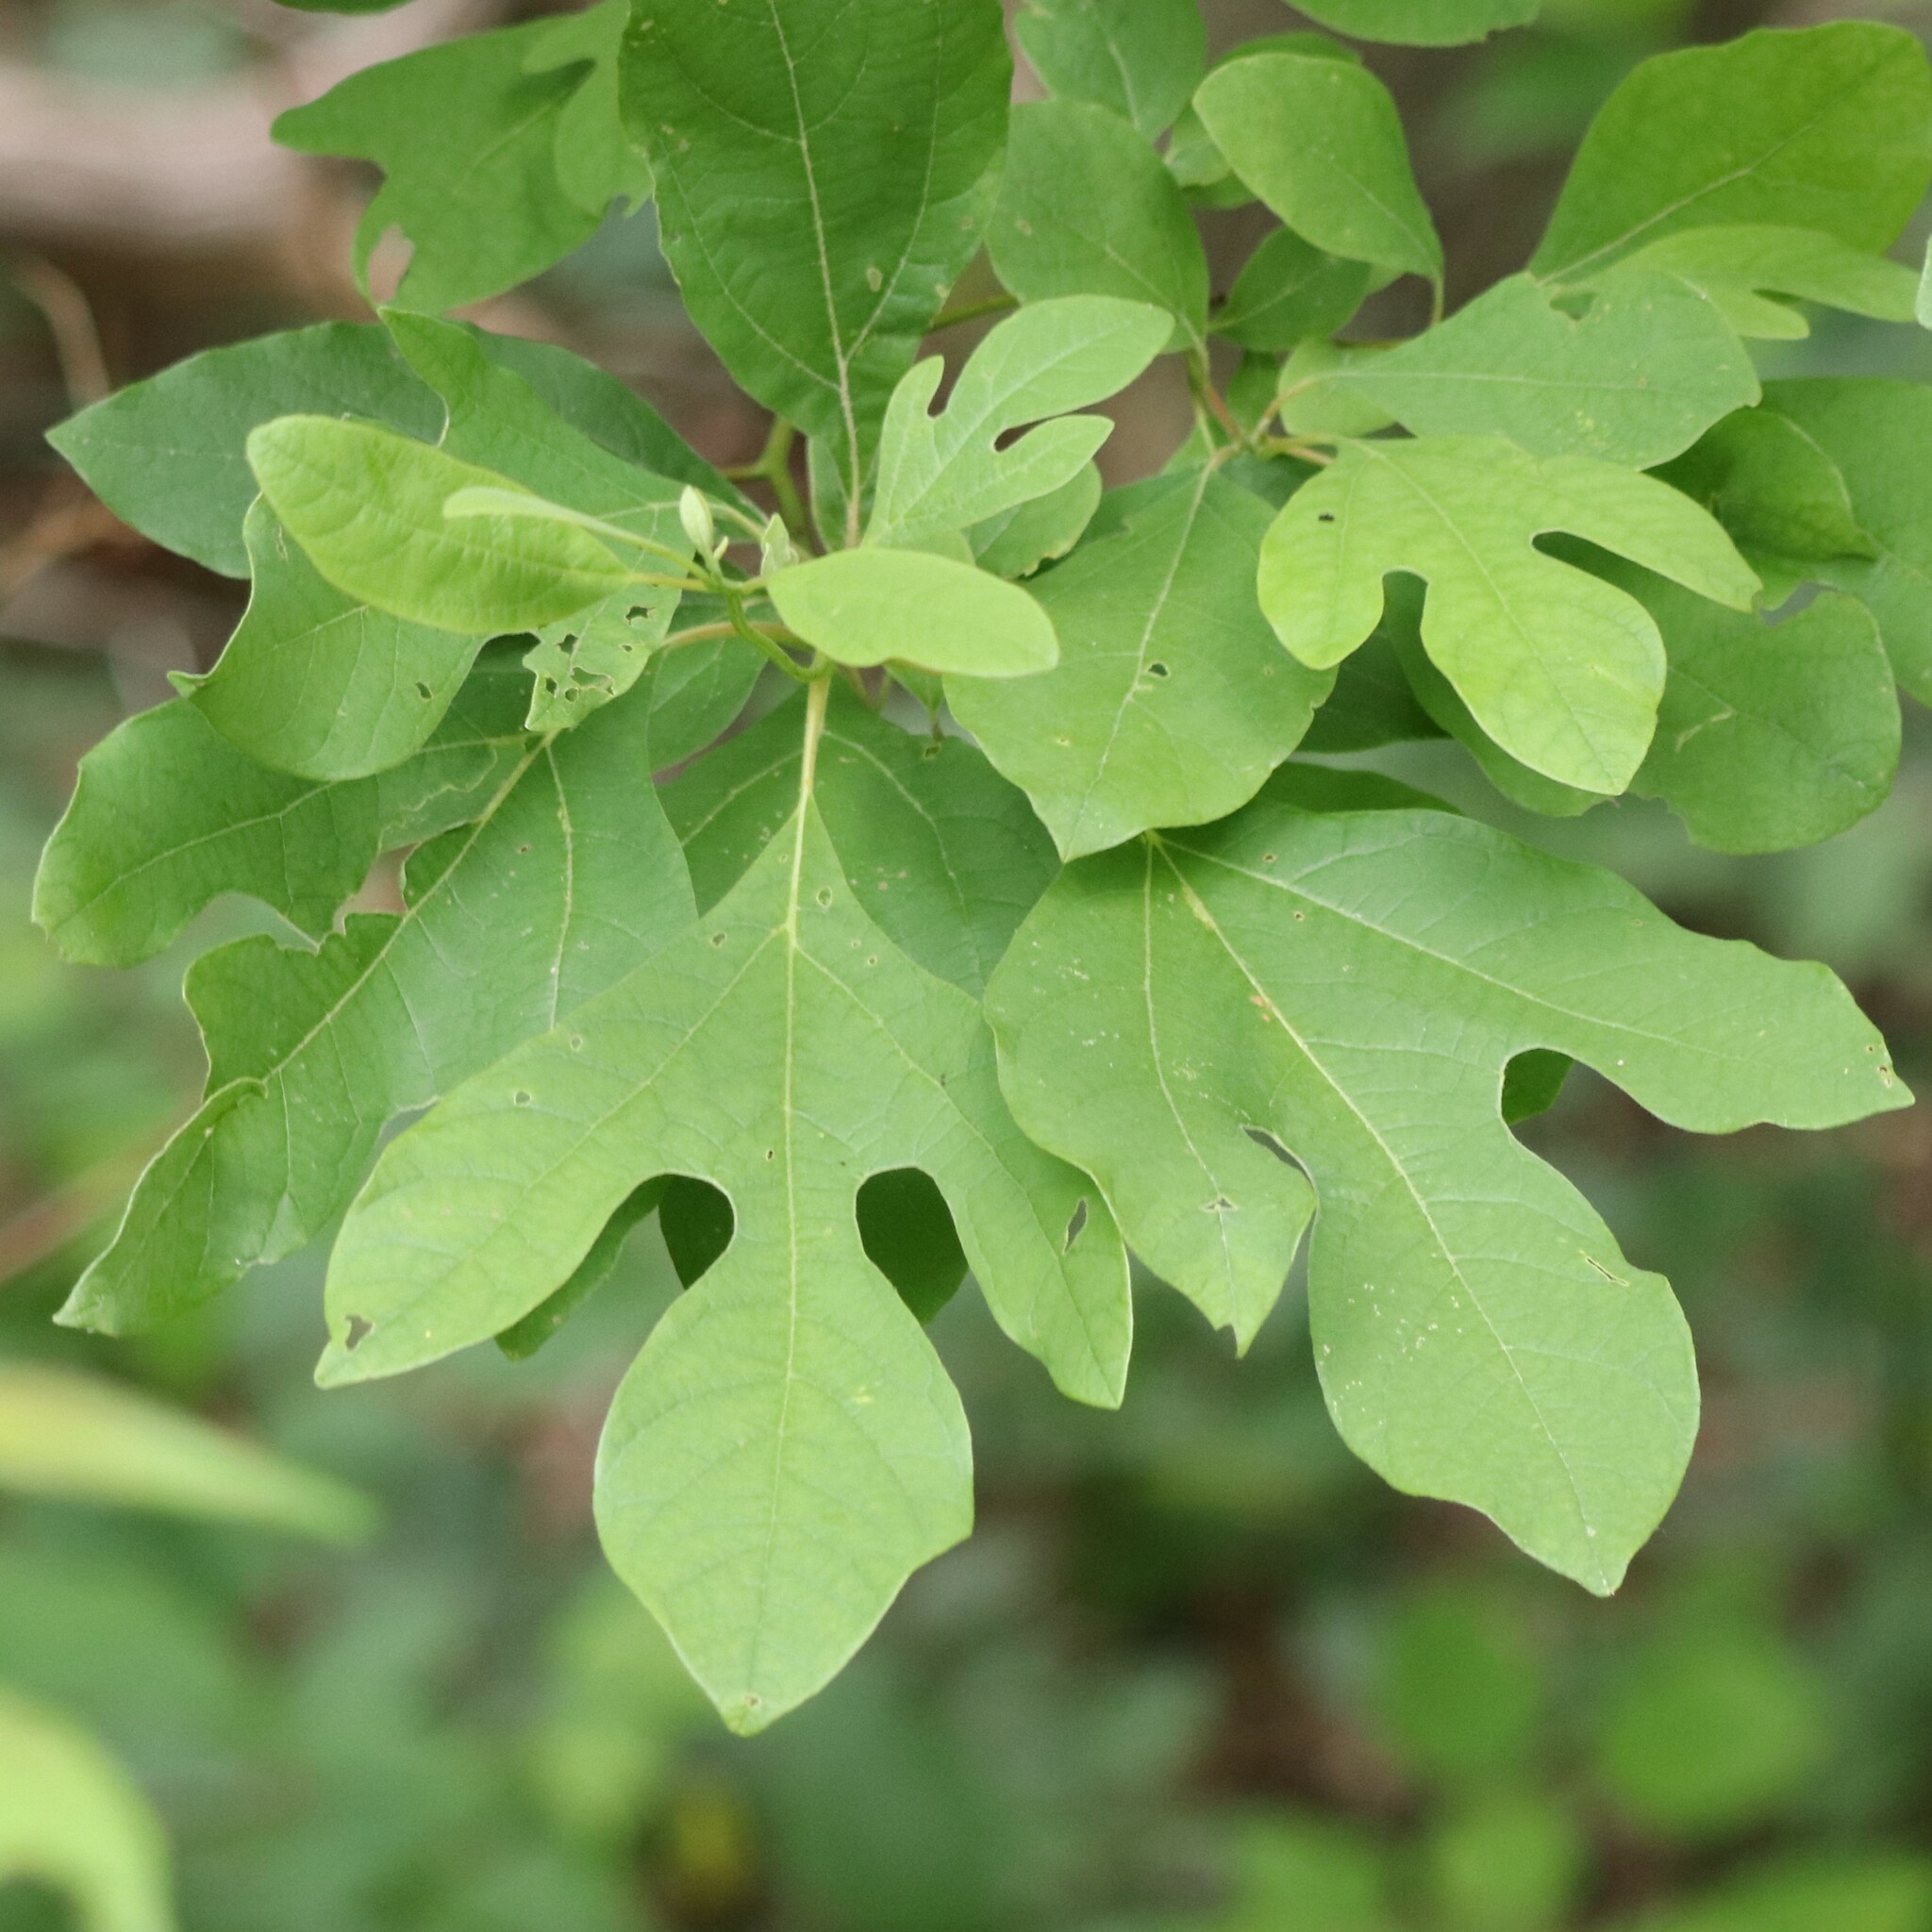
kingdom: Plantae
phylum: Tracheophyta
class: Magnoliopsida
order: Laurales
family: Lauraceae
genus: Sassafras
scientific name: Sassafras albidum
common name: Sassafras
